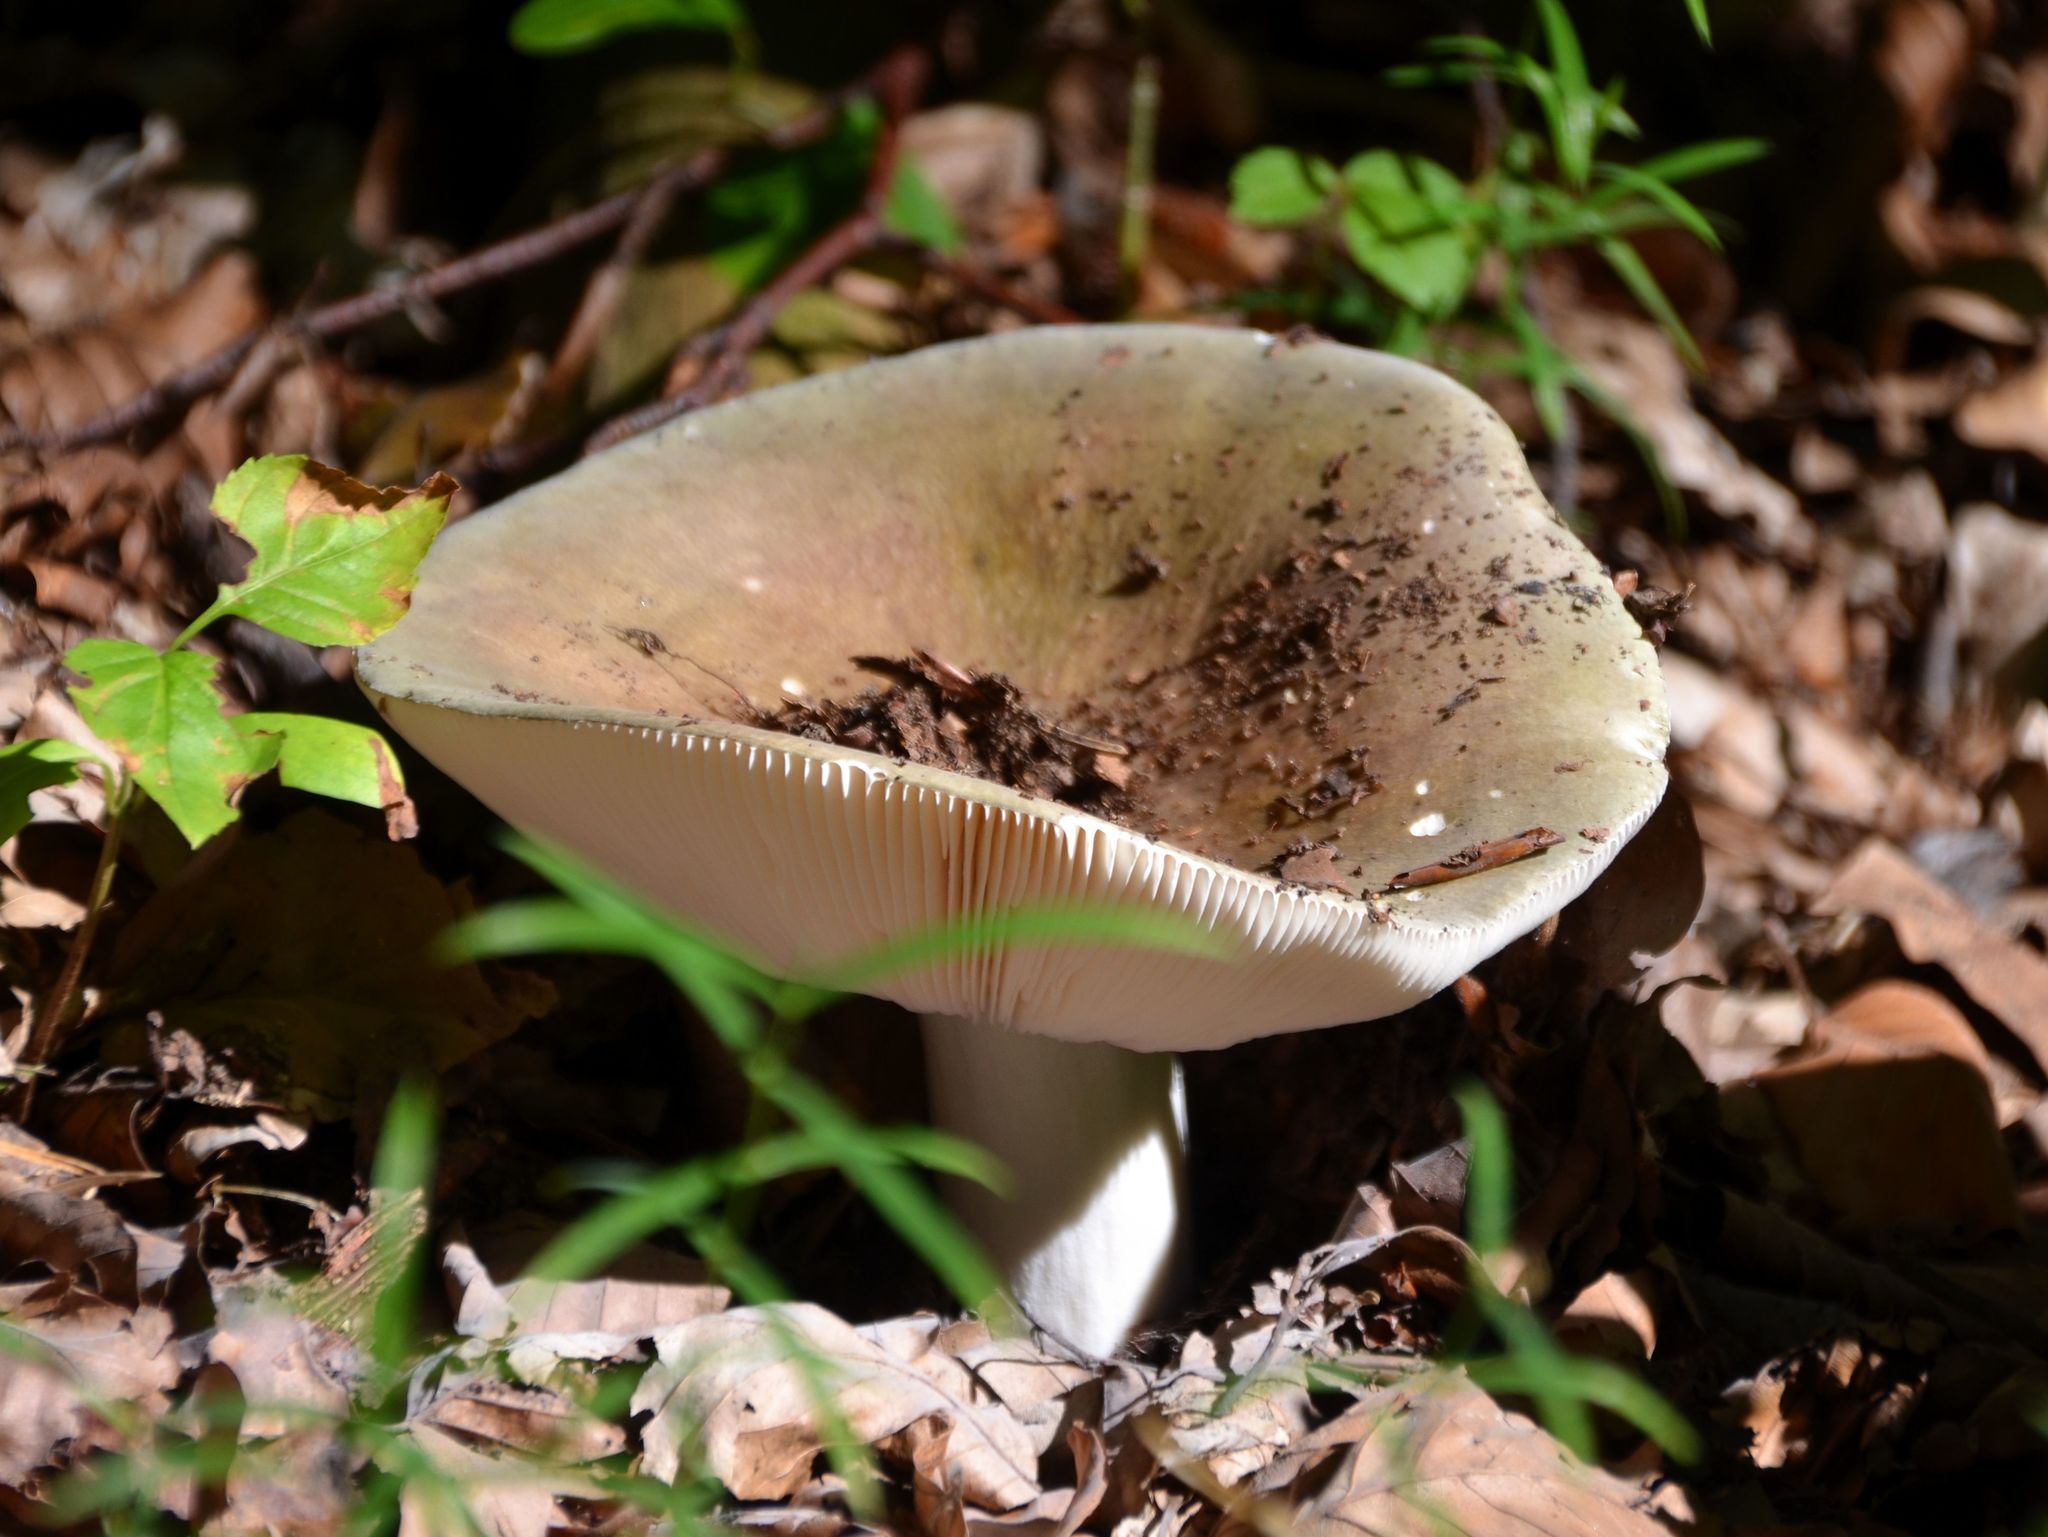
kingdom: Fungi
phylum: Basidiomycota
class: Agaricomycetes
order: Russulales
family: Russulaceae
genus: Russula
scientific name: Russula heterophylla
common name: Greasy green brittlegill
